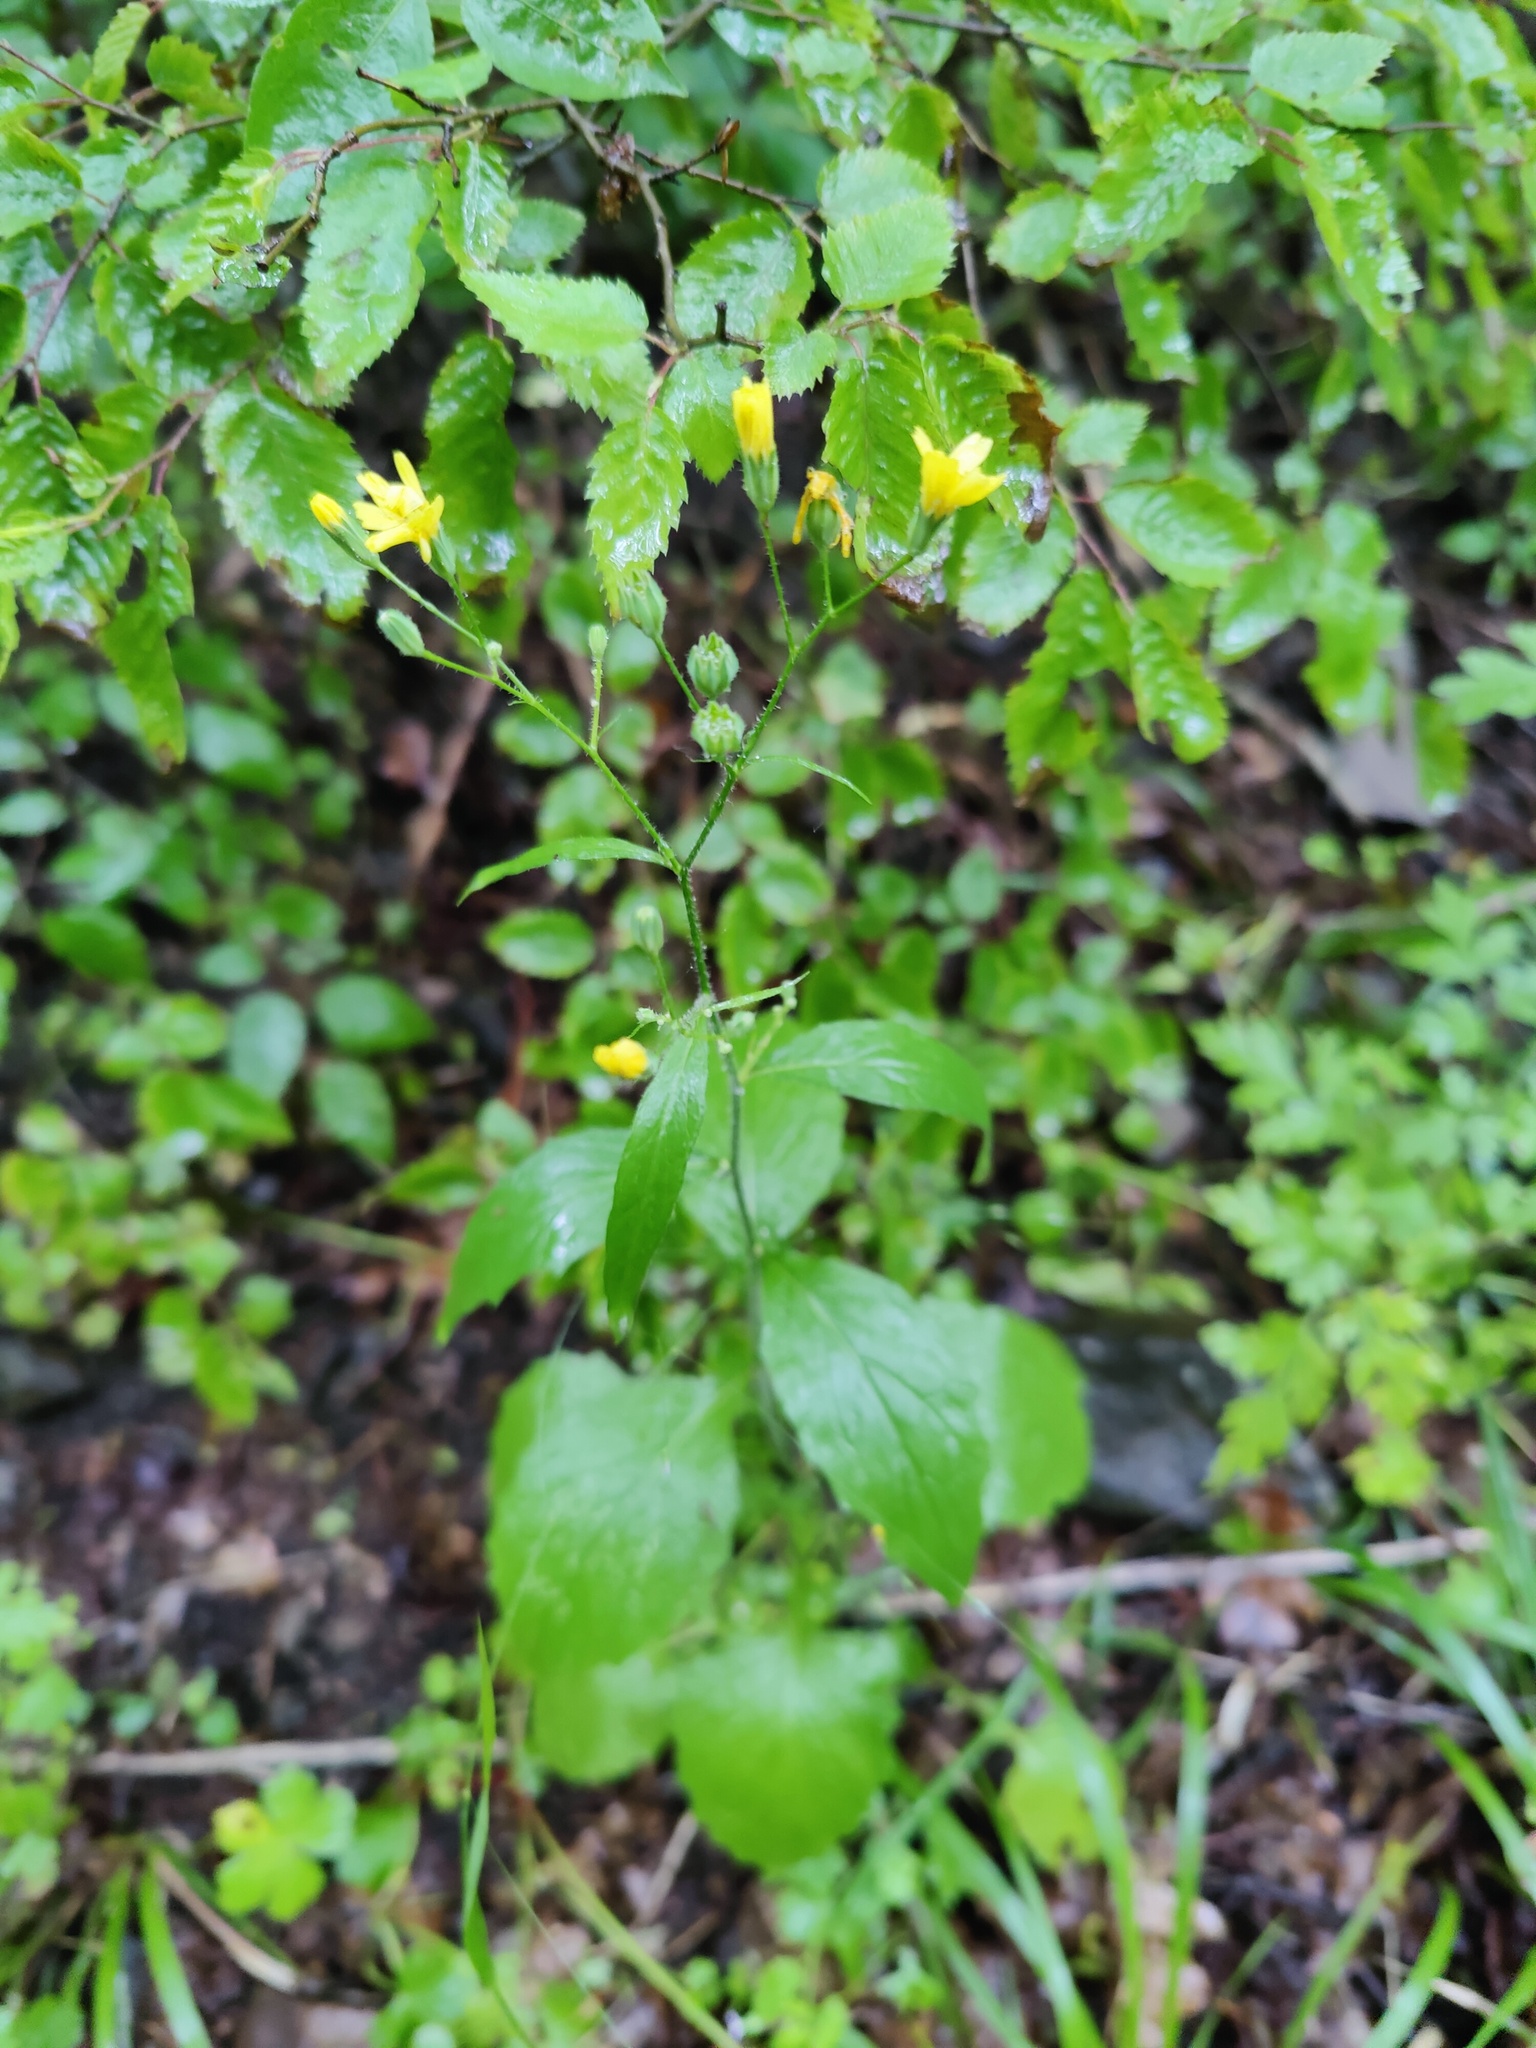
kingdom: Plantae
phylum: Tracheophyta
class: Magnoliopsida
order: Asterales
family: Asteraceae
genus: Lapsana
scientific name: Lapsana communis
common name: Nipplewort
